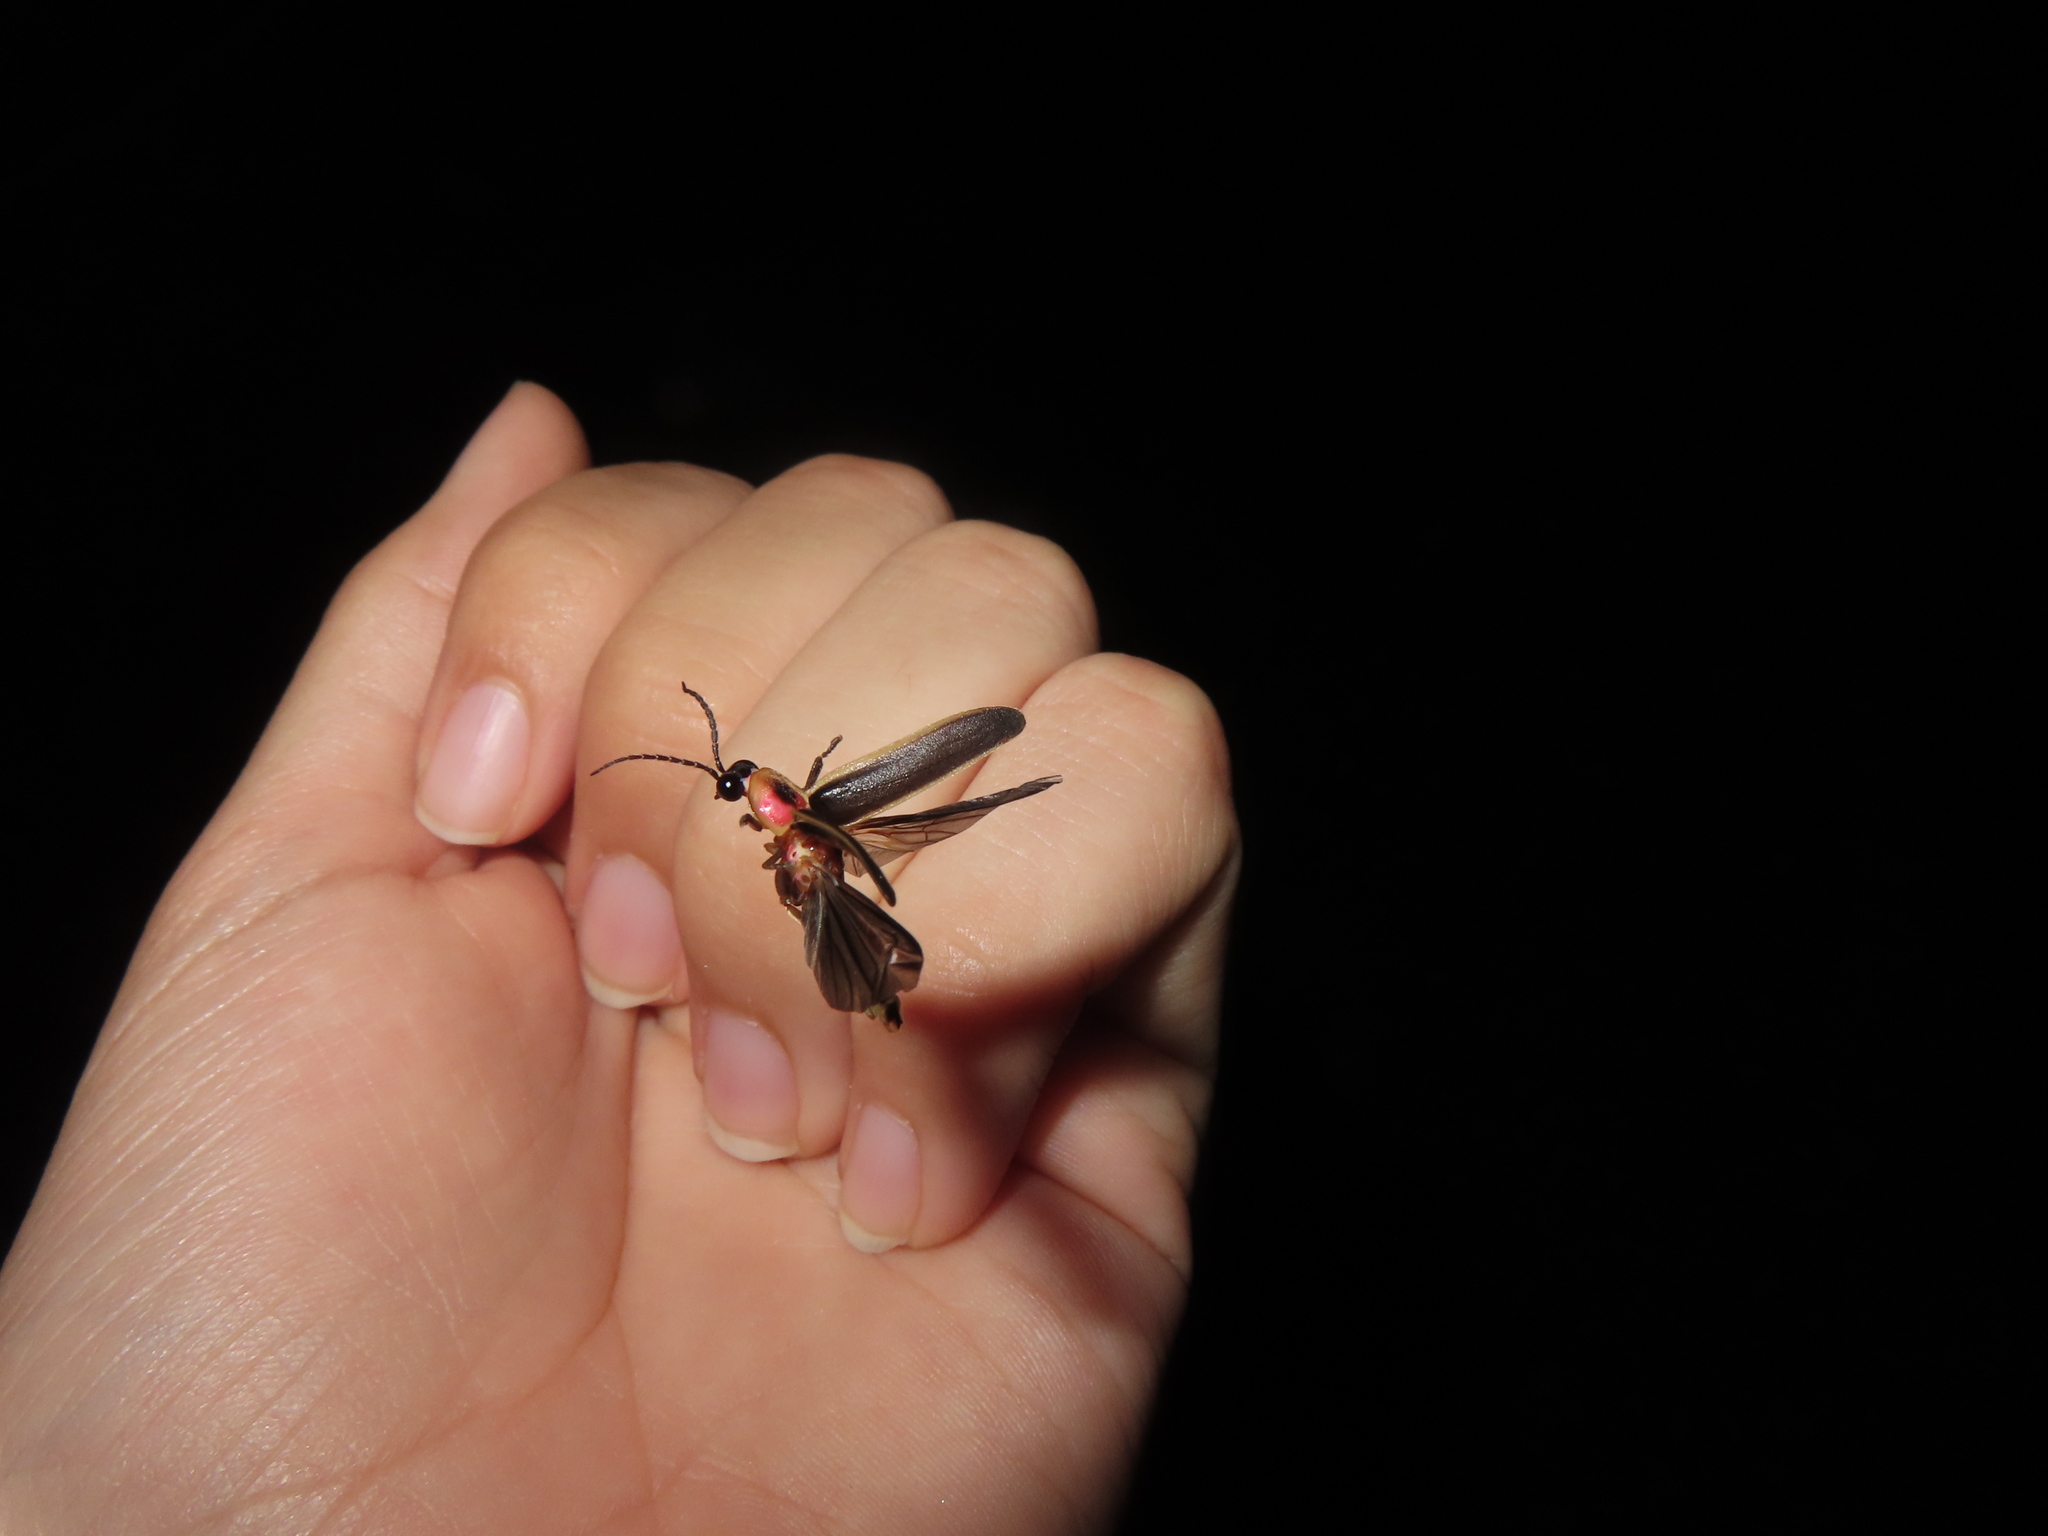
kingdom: Animalia
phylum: Arthropoda
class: Insecta
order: Coleoptera
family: Lampyridae
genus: Photinus
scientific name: Photinus pyralis
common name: Big dipper firefly
